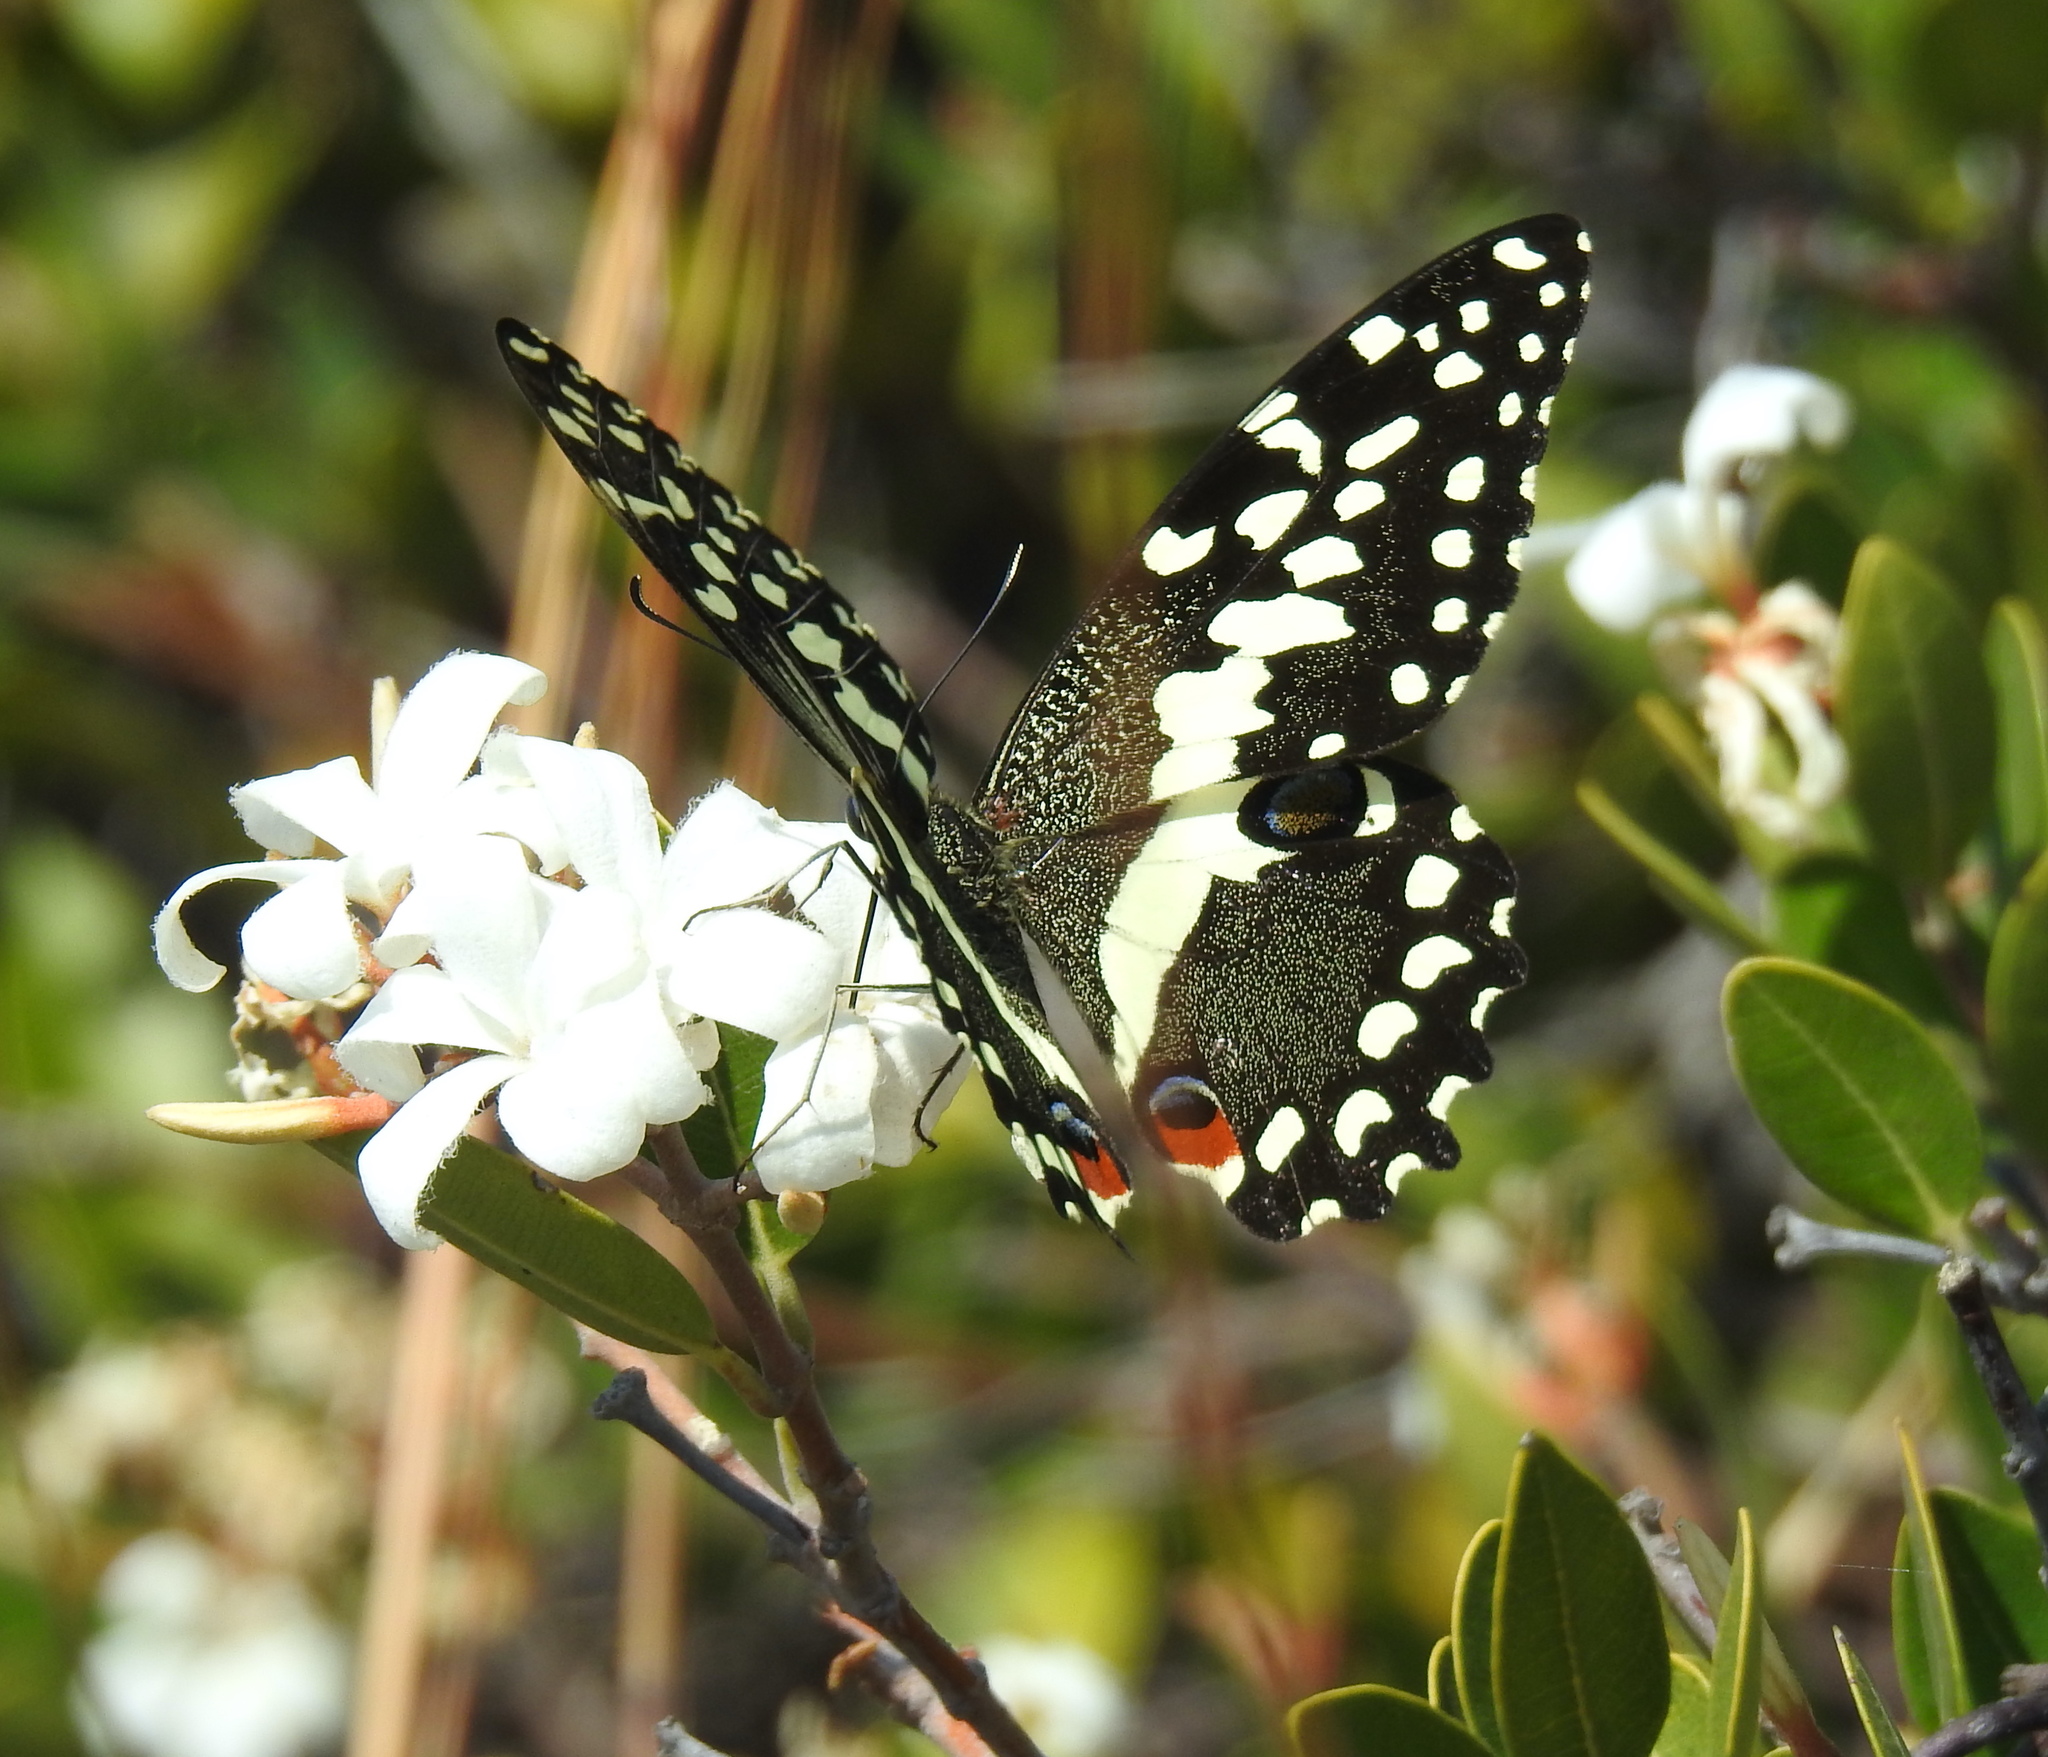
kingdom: Animalia
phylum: Arthropoda
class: Insecta
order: Lepidoptera
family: Papilionidae
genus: Papilio
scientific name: Papilio demodocus
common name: Christmas butterfly
